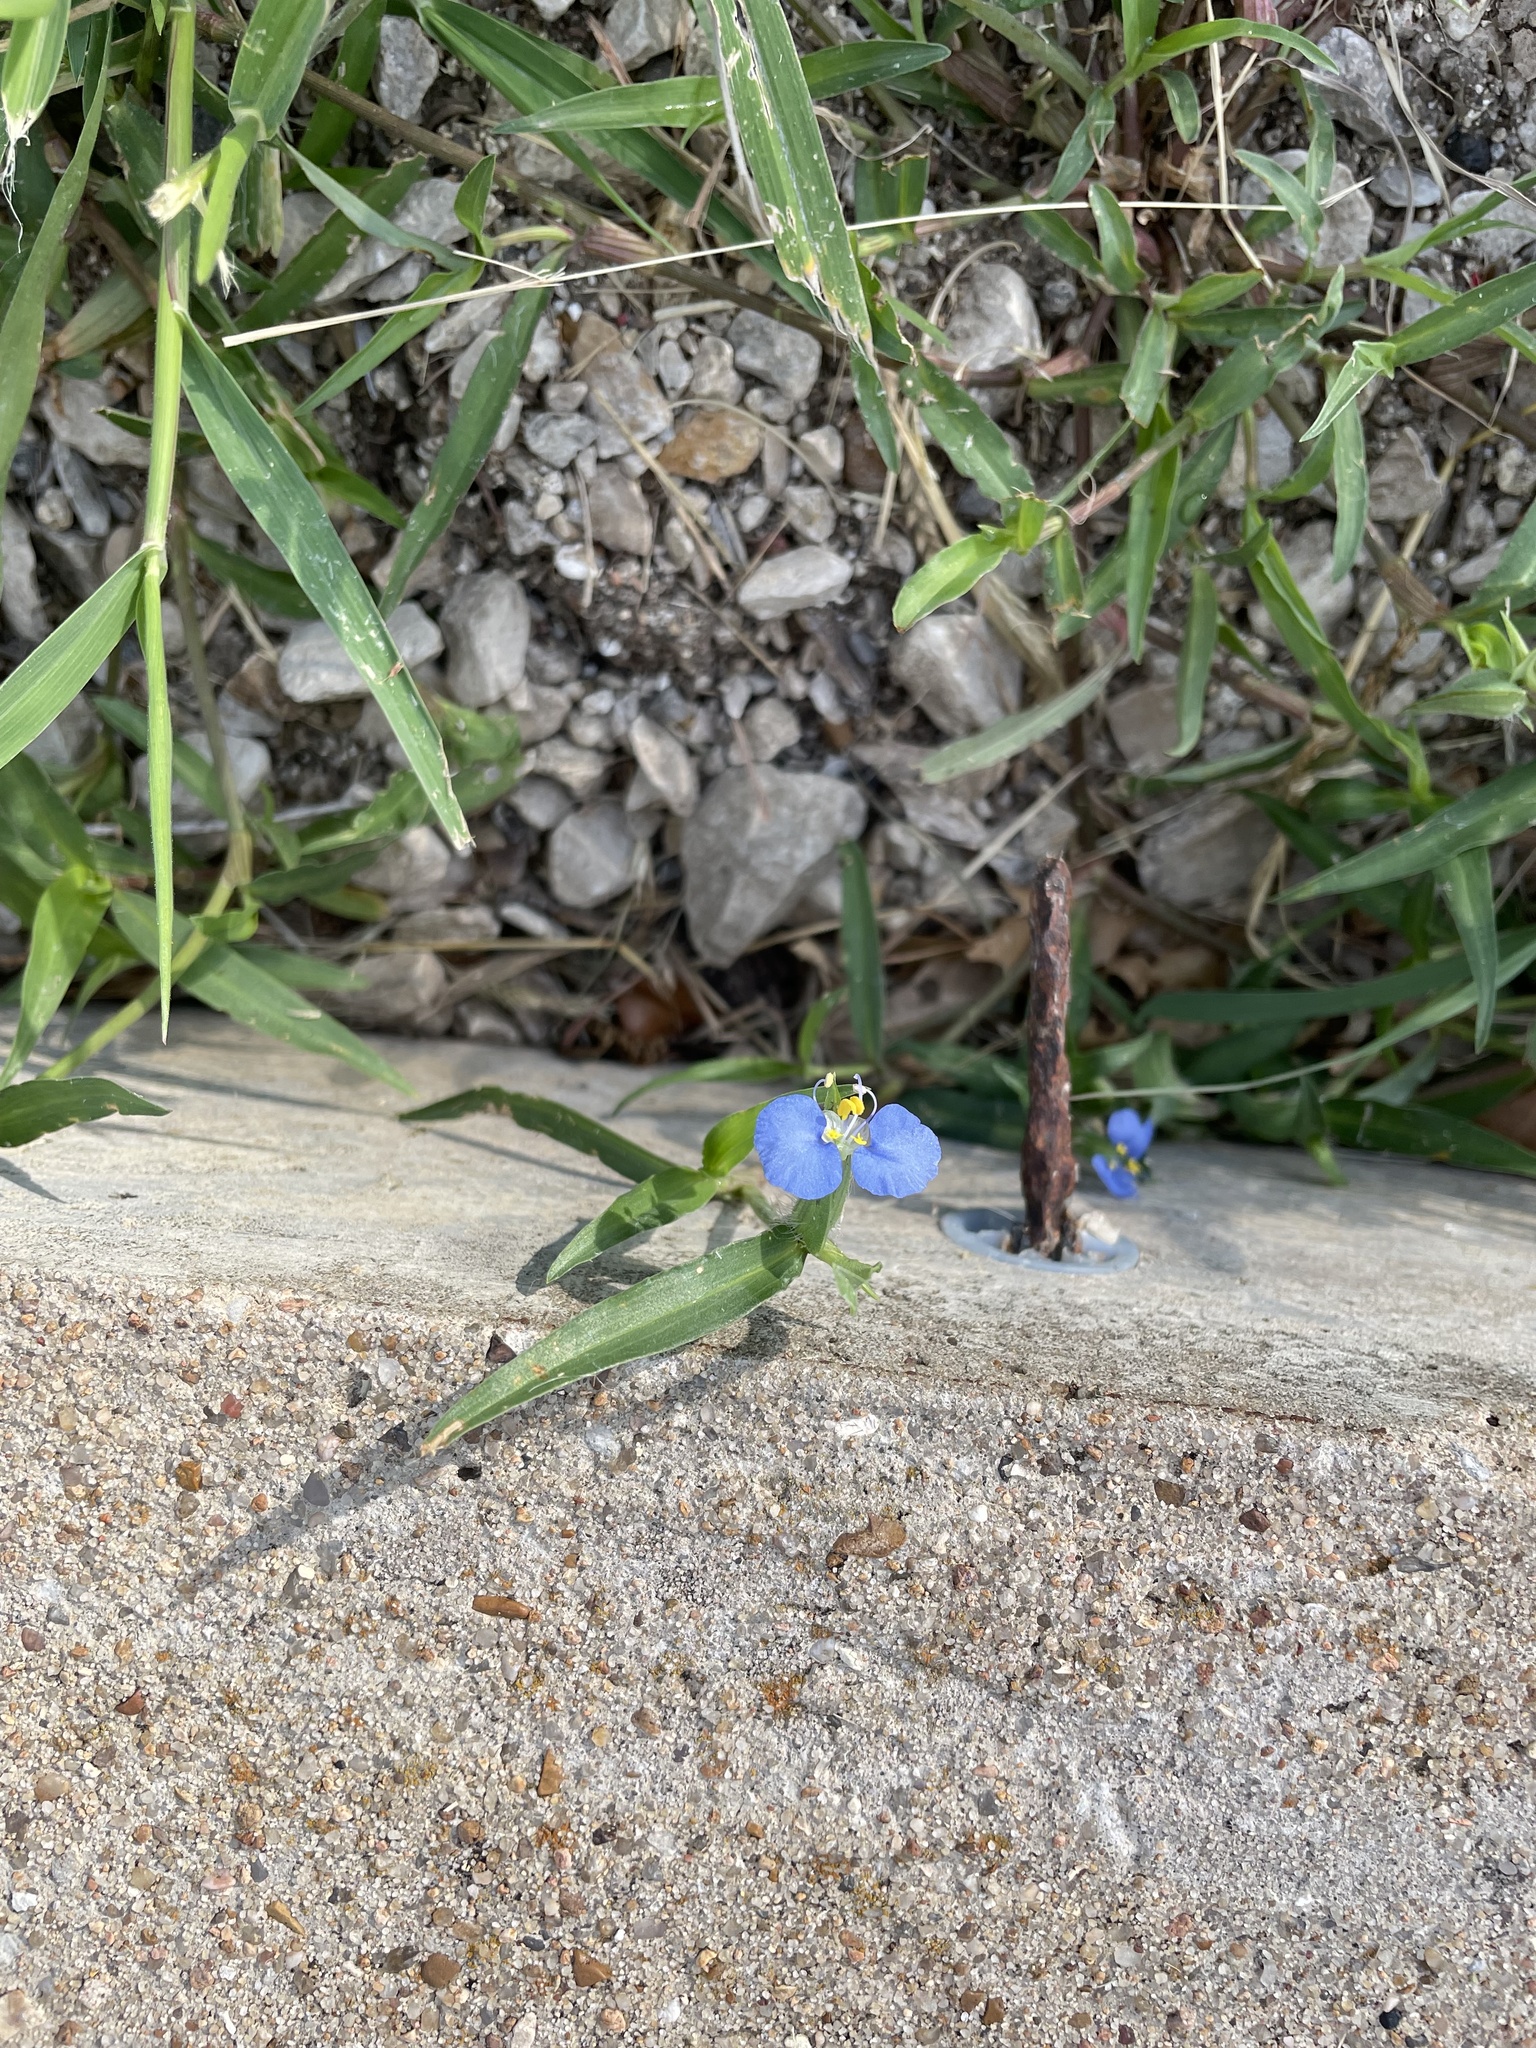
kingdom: Plantae
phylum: Tracheophyta
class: Liliopsida
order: Commelinales
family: Commelinaceae
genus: Commelina
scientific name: Commelina erecta
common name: Blousel blommetjie
